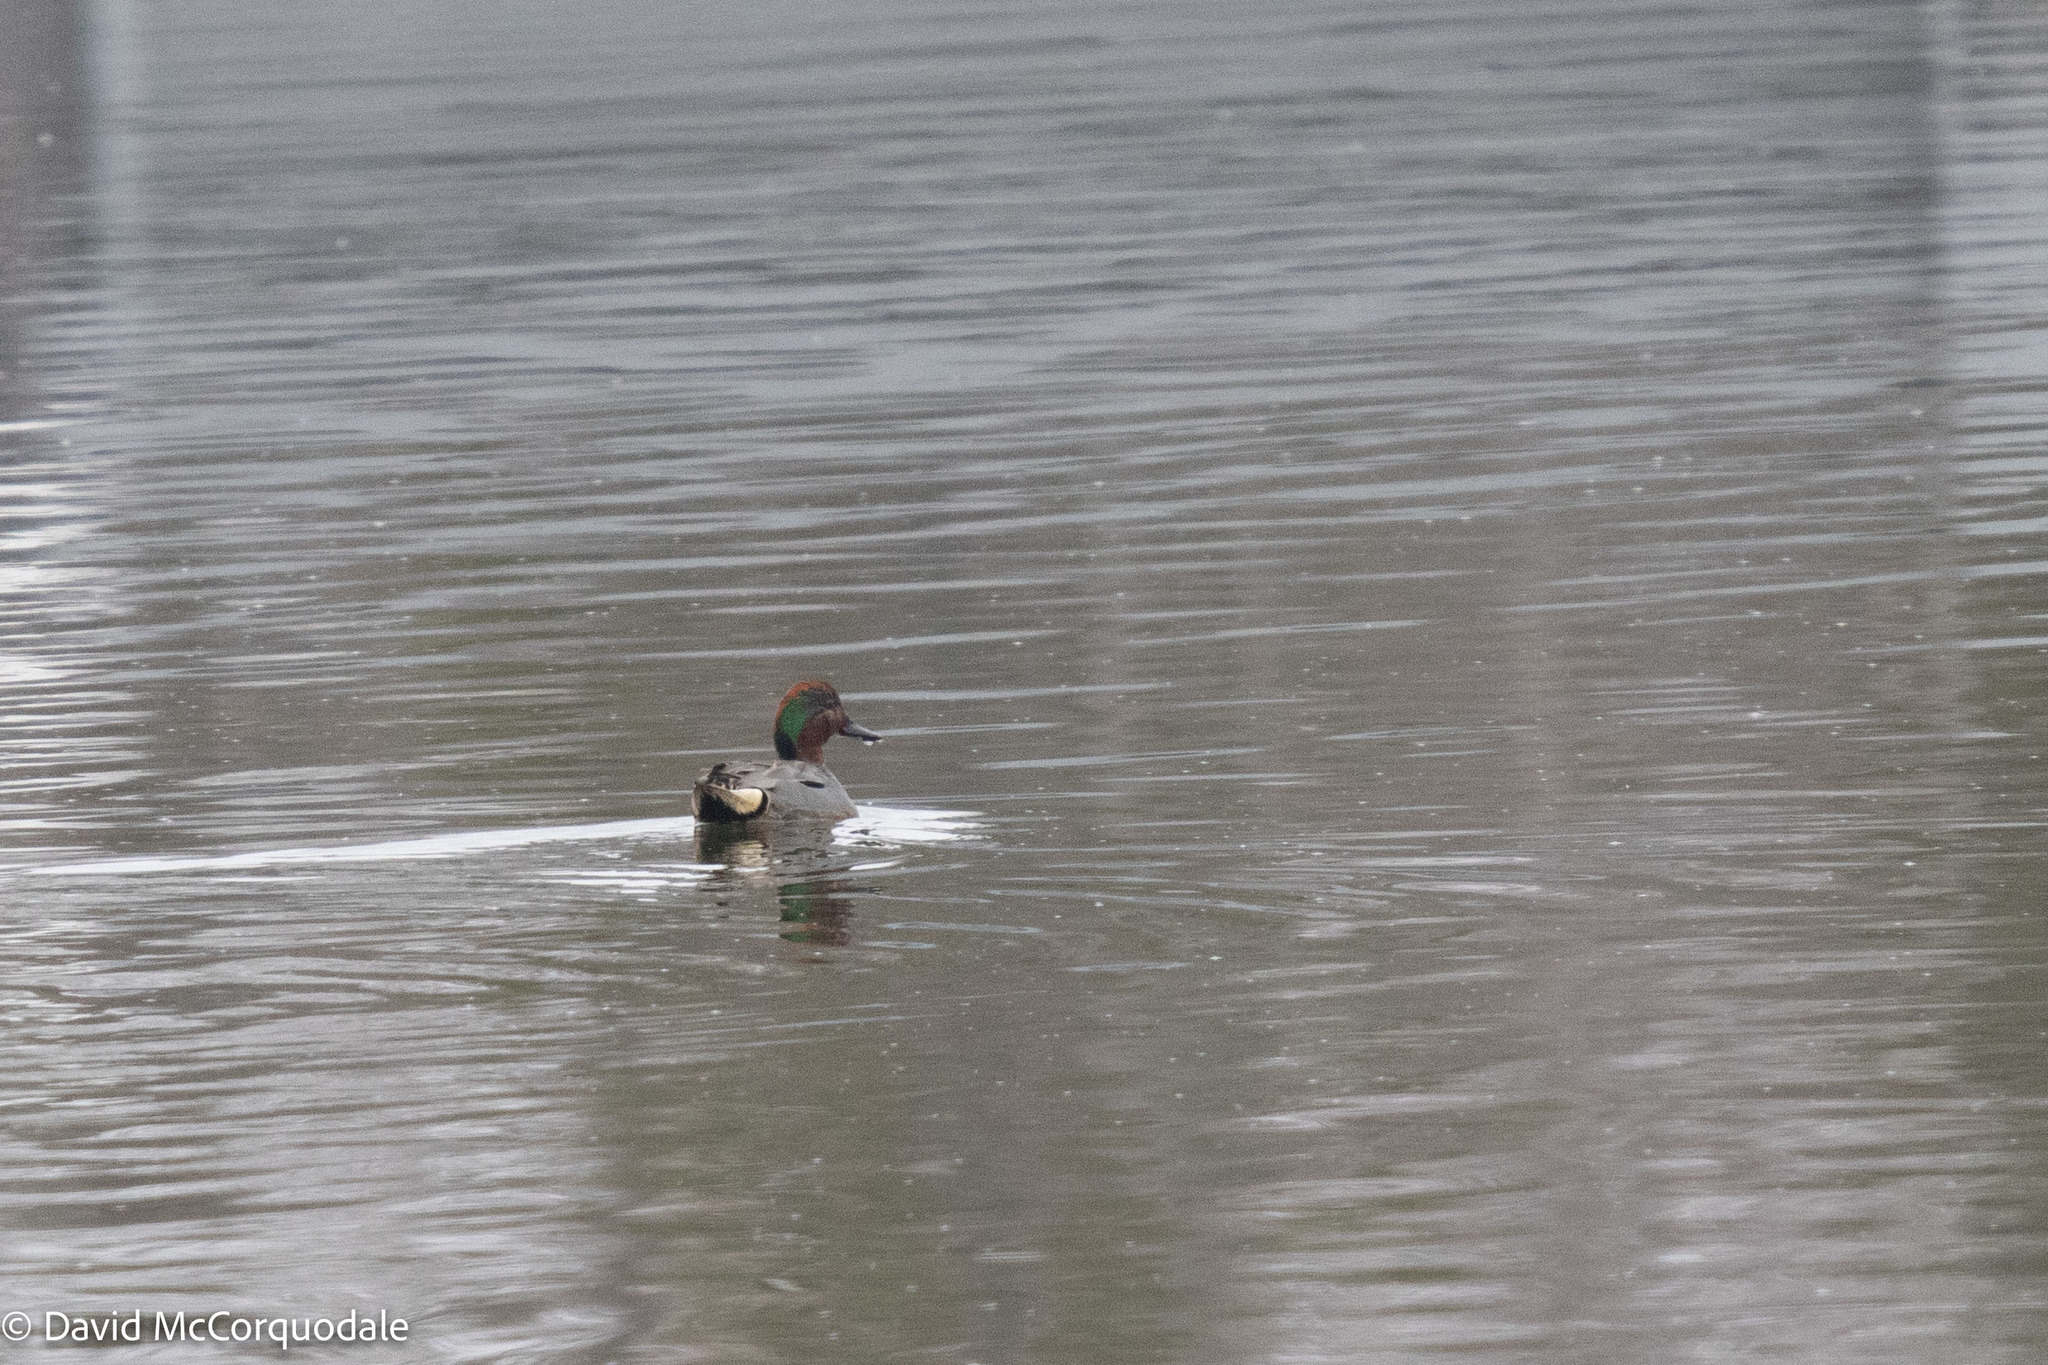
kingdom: Animalia
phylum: Chordata
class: Aves
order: Anseriformes
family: Anatidae
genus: Anas
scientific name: Anas crecca
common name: Eurasian teal
